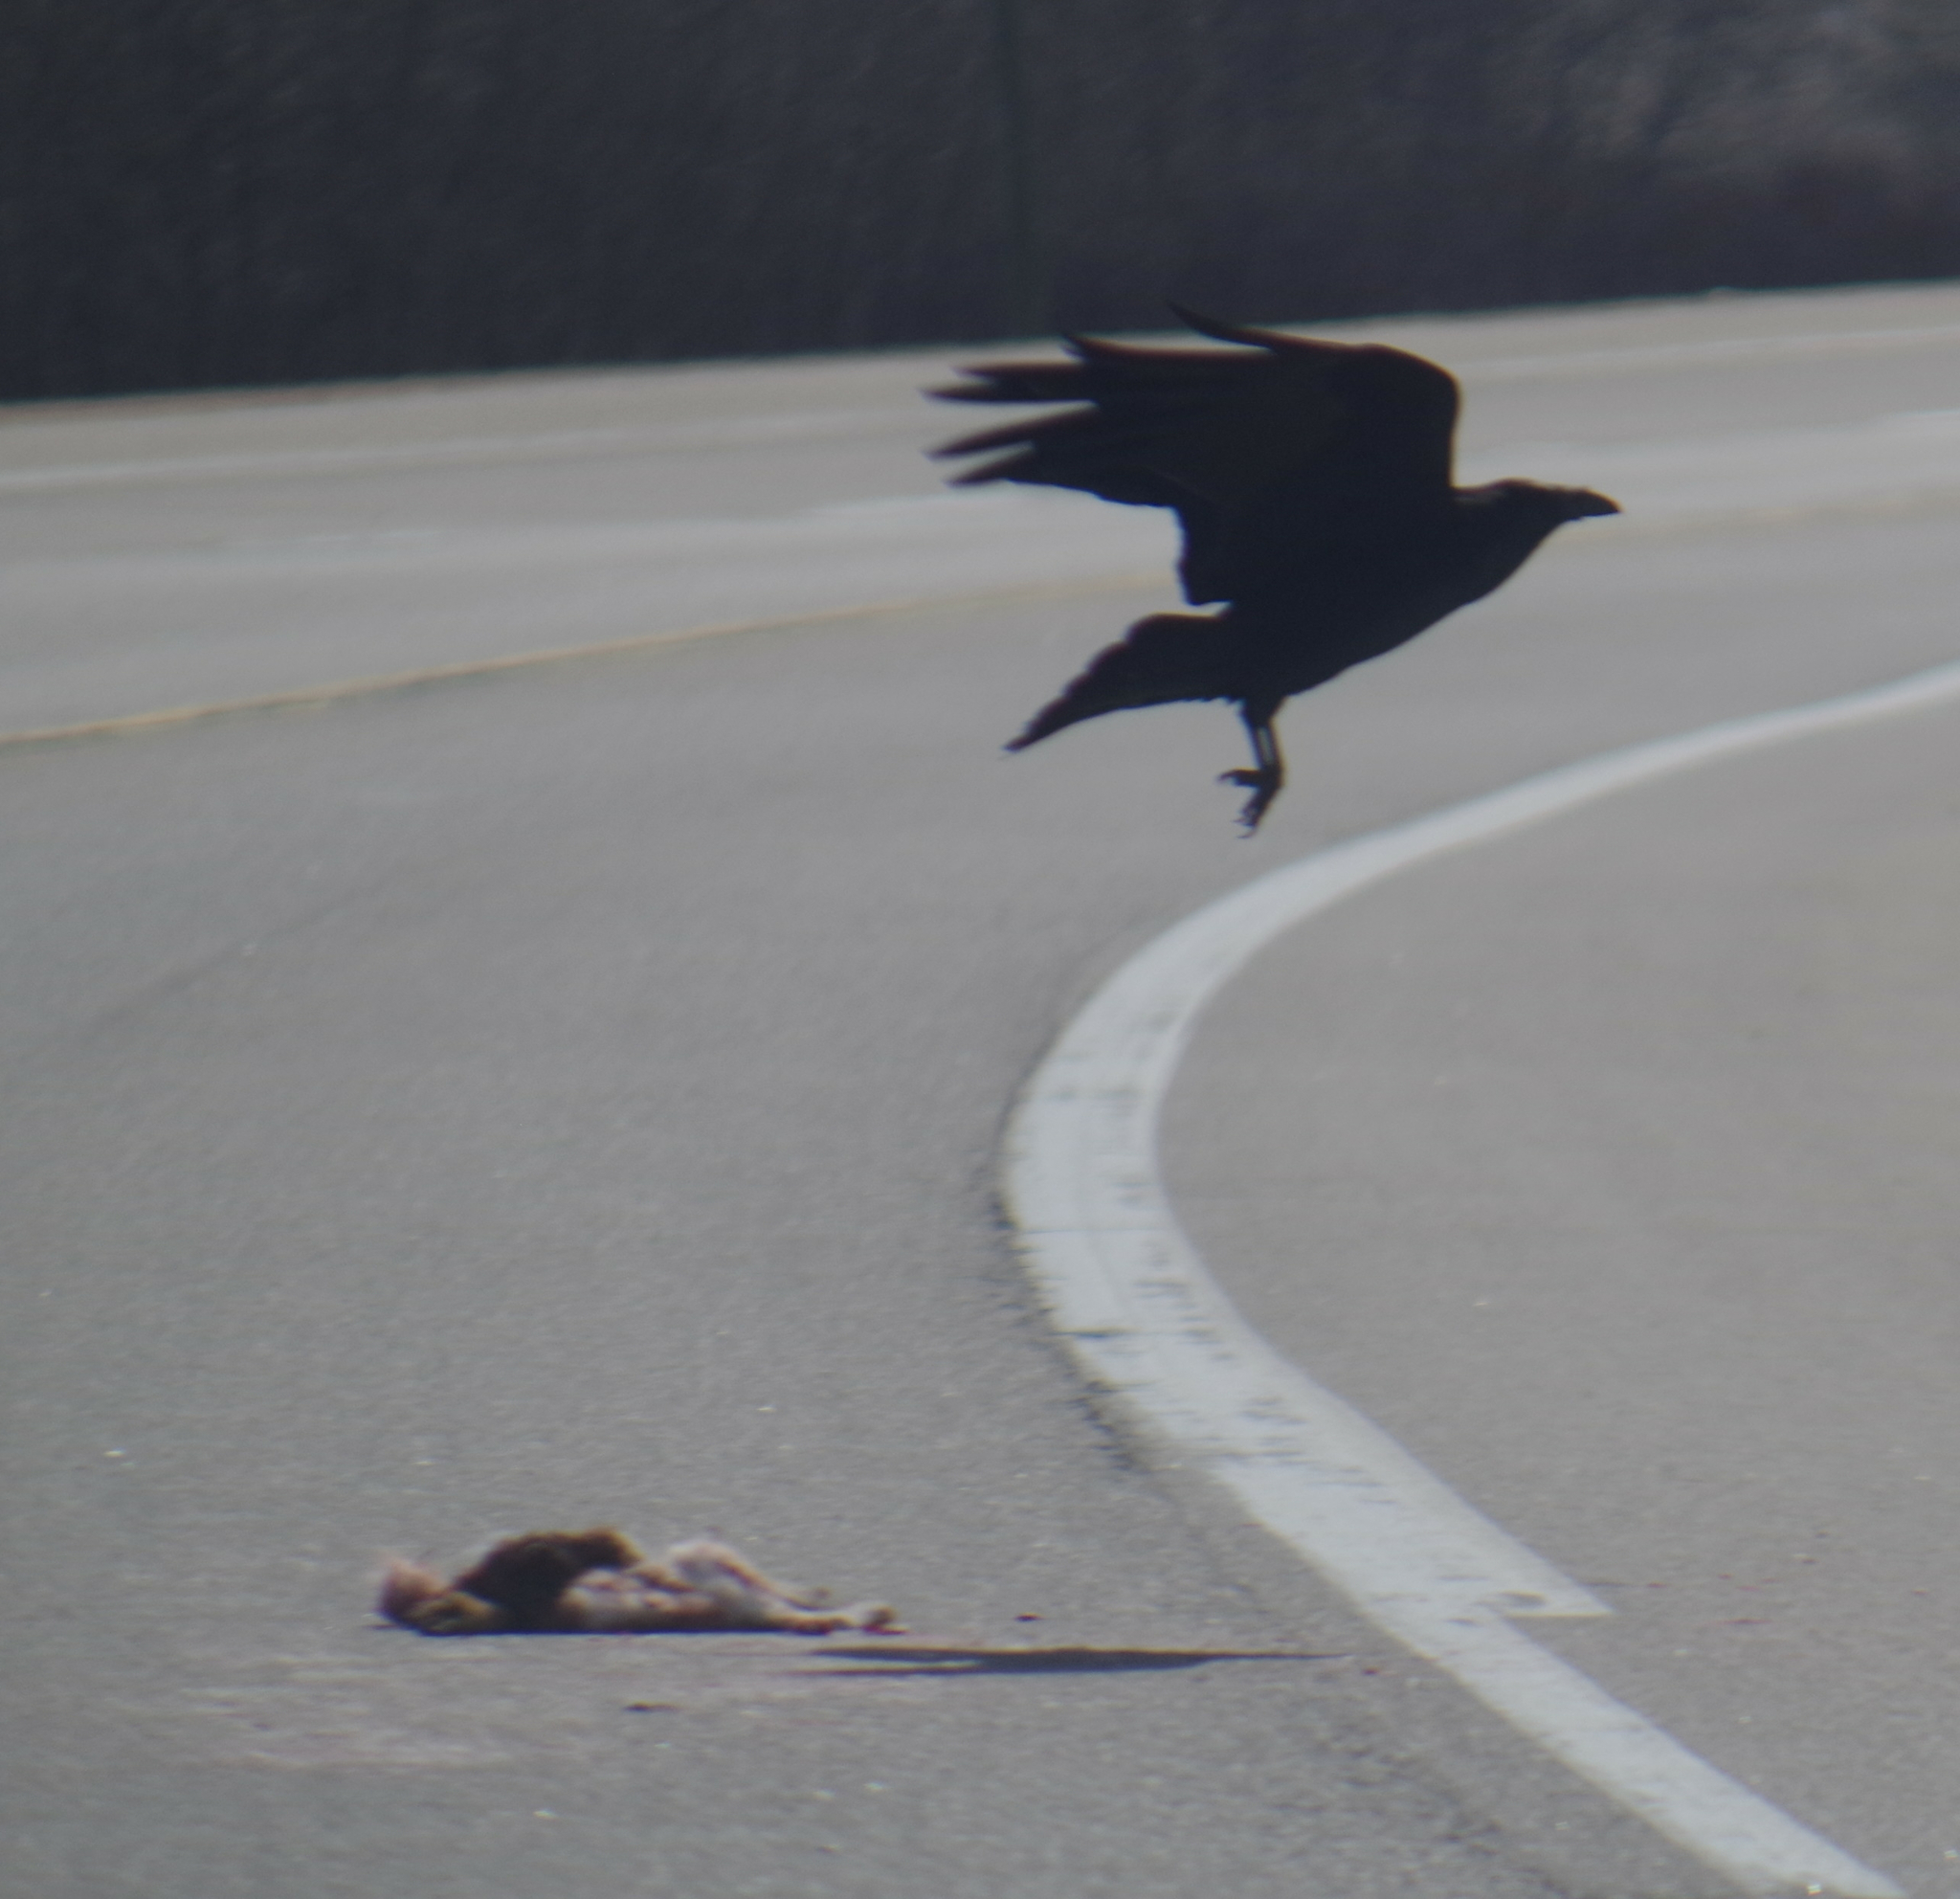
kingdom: Animalia
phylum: Chordata
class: Aves
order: Passeriformes
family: Corvidae
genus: Corvus
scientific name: Corvus corax
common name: Common raven
